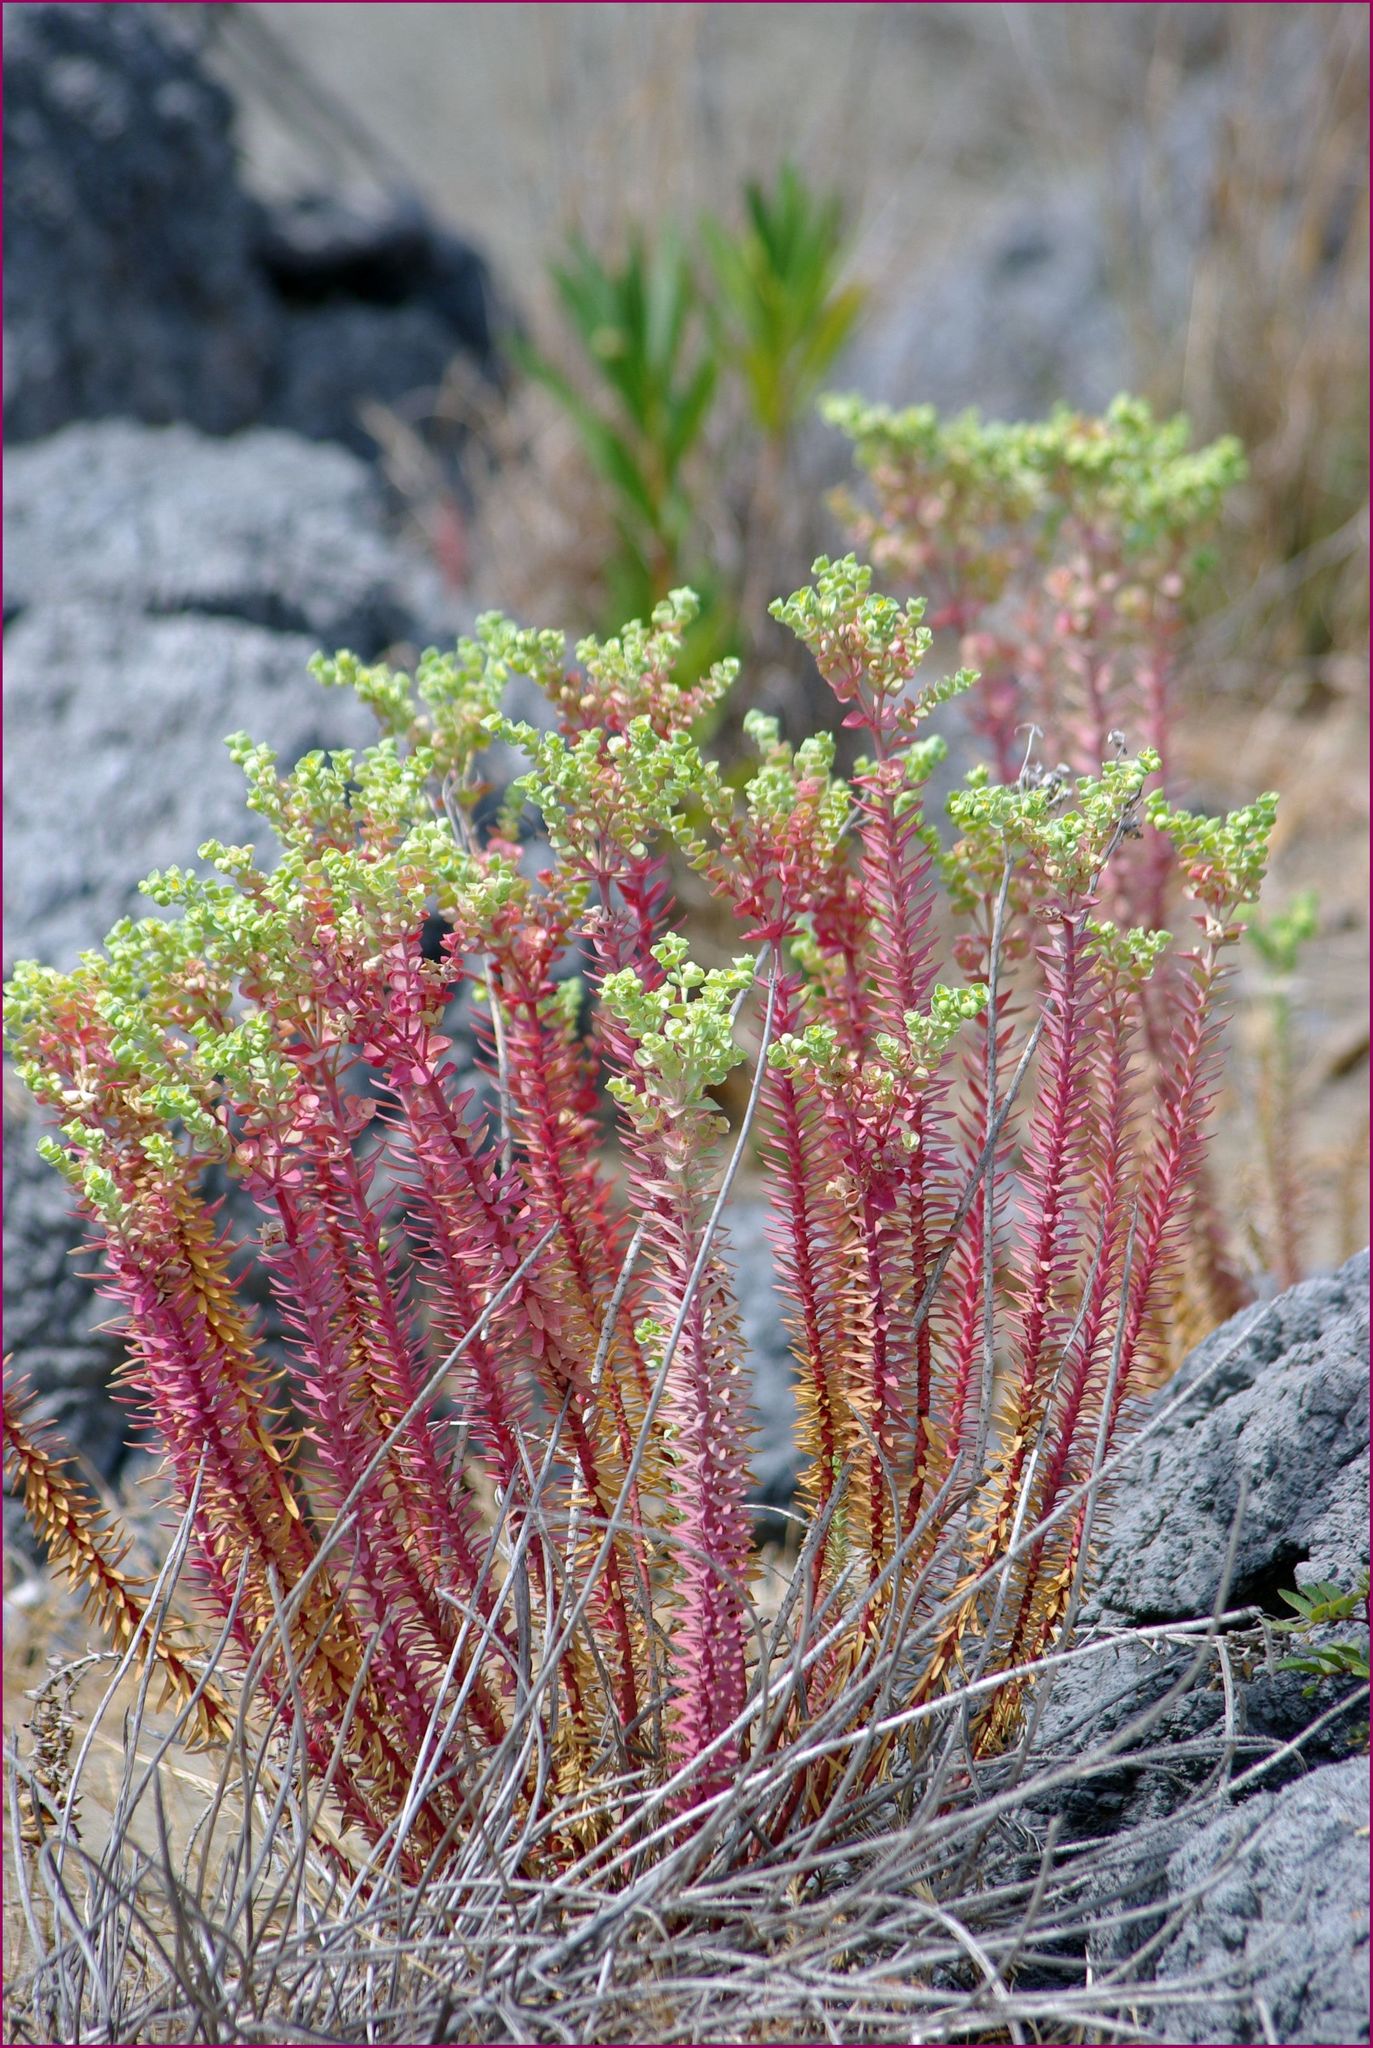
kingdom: Plantae
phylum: Tracheophyta
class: Magnoliopsida
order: Malpighiales
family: Euphorbiaceae
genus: Euphorbia
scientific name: Euphorbia paralias
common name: Sea spurge
